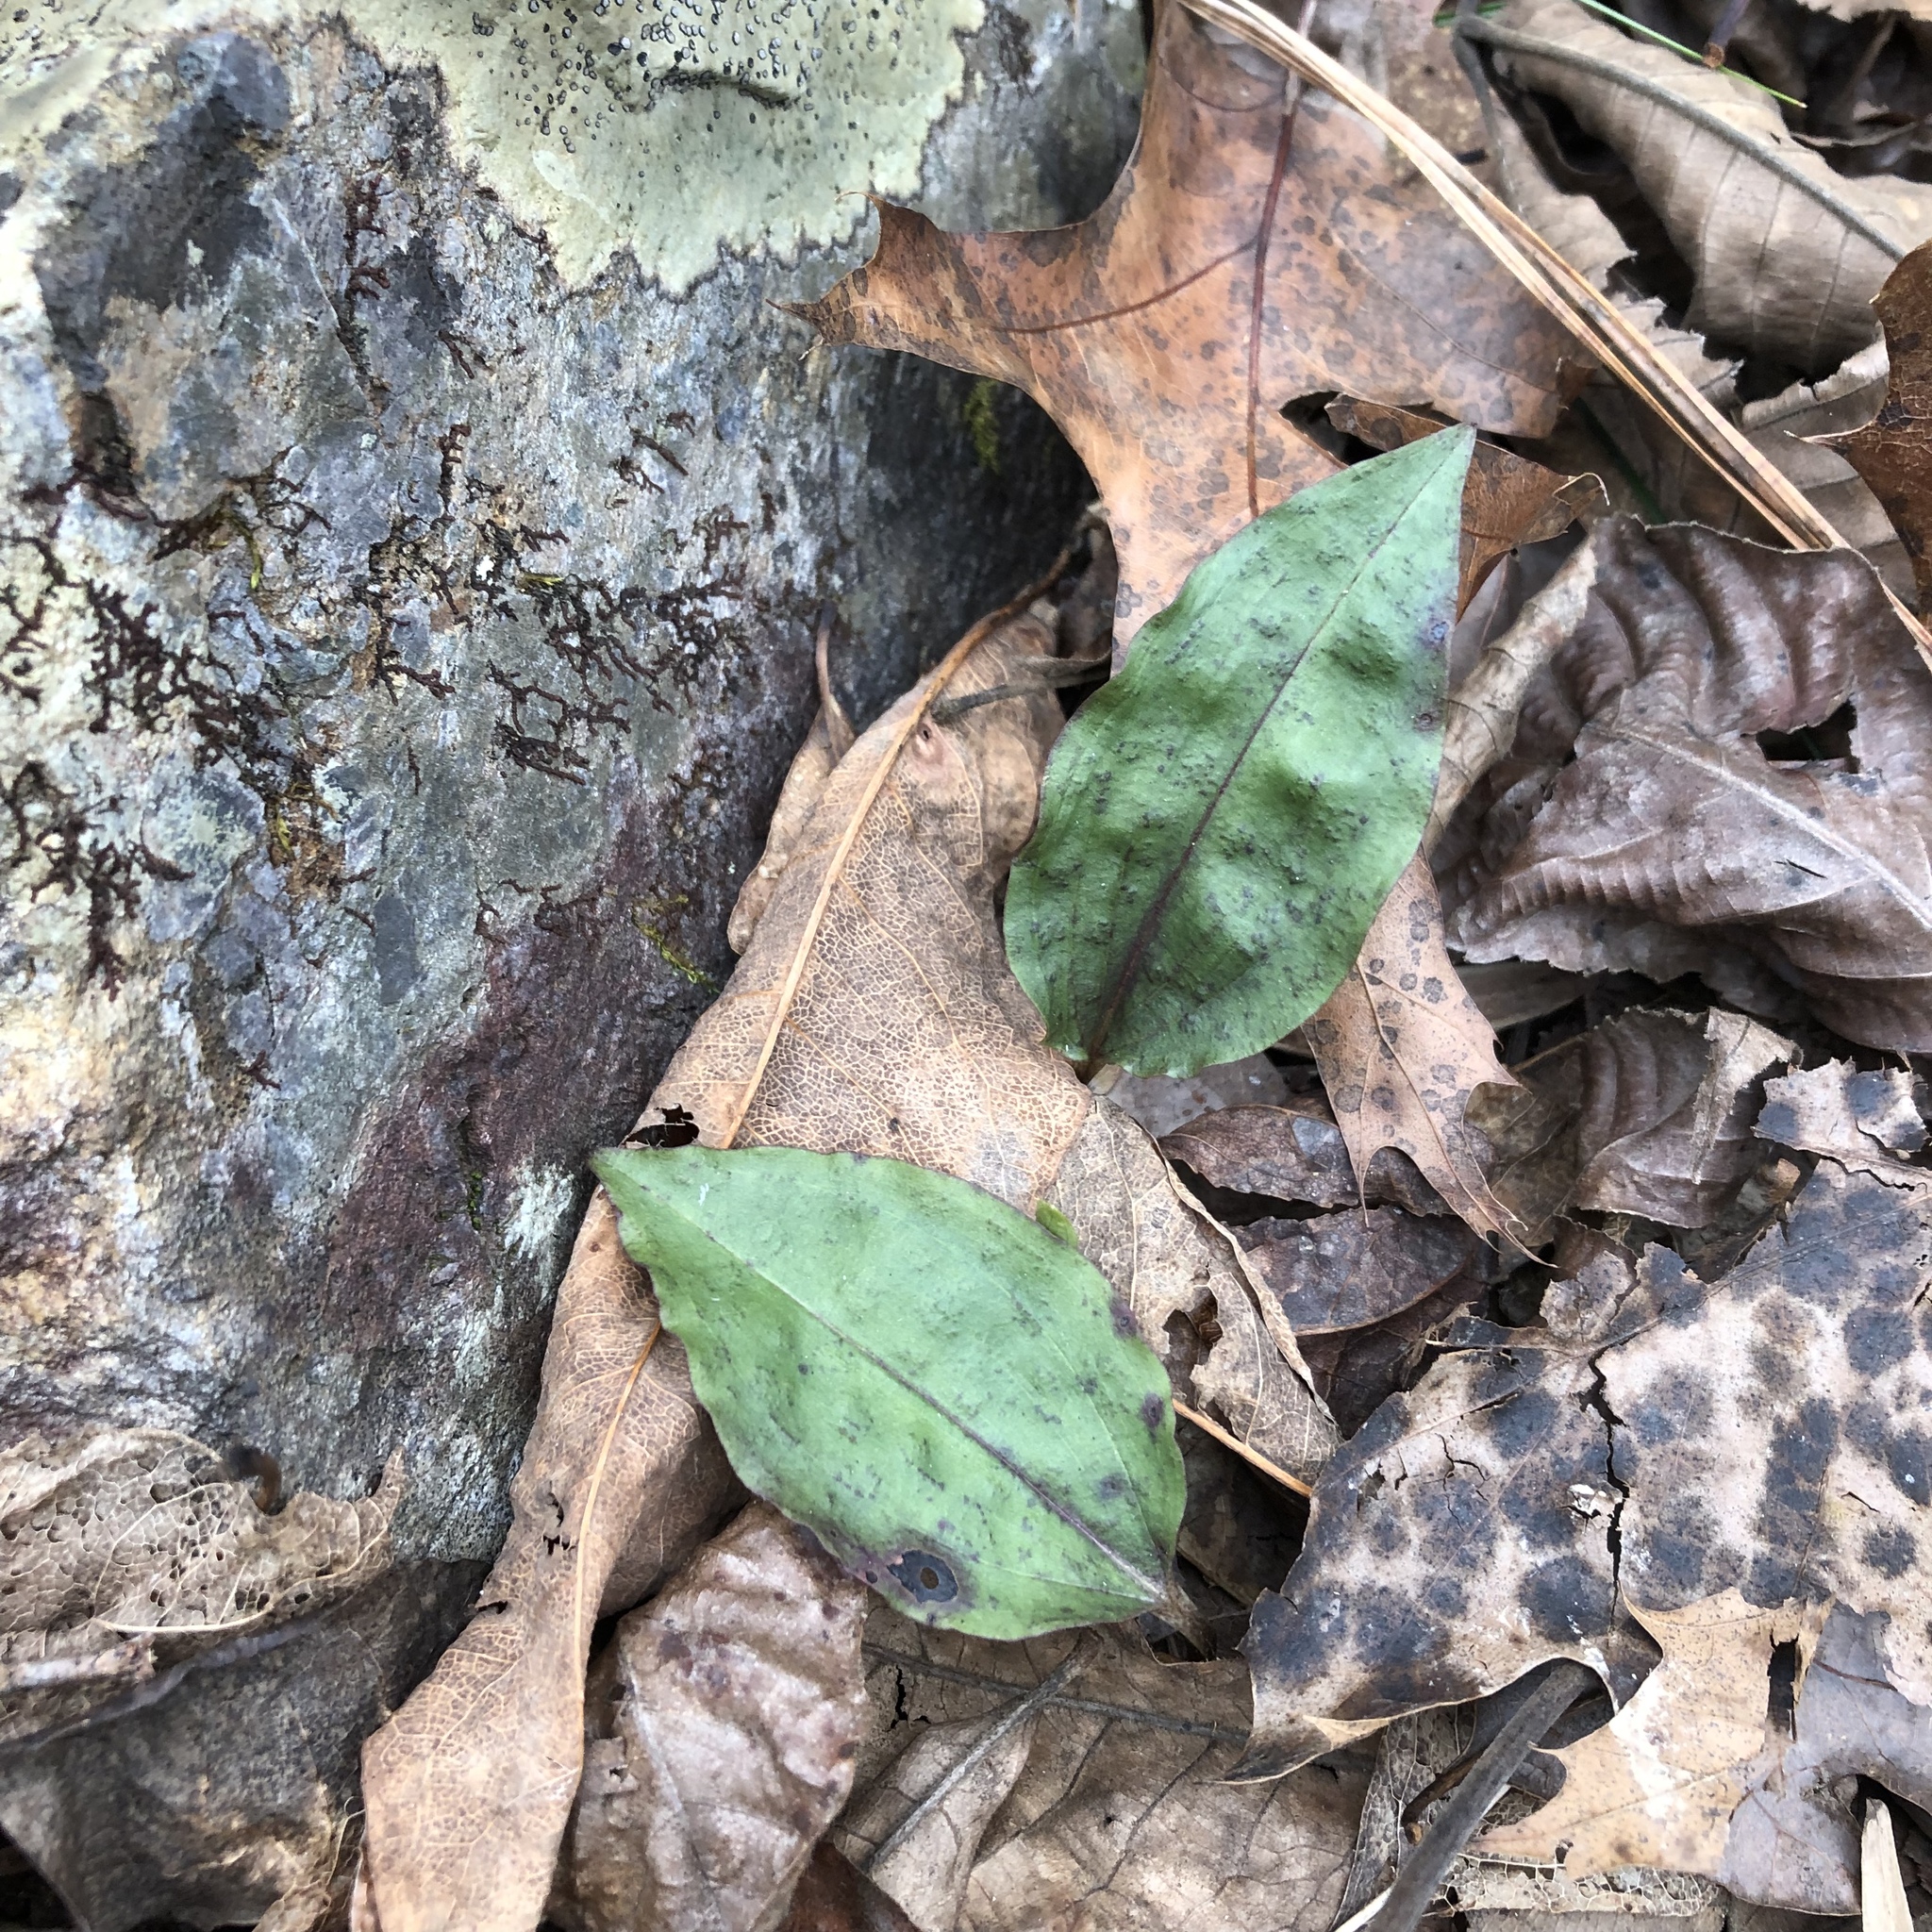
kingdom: Plantae
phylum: Tracheophyta
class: Liliopsida
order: Asparagales
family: Orchidaceae
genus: Tipularia
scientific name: Tipularia discolor
